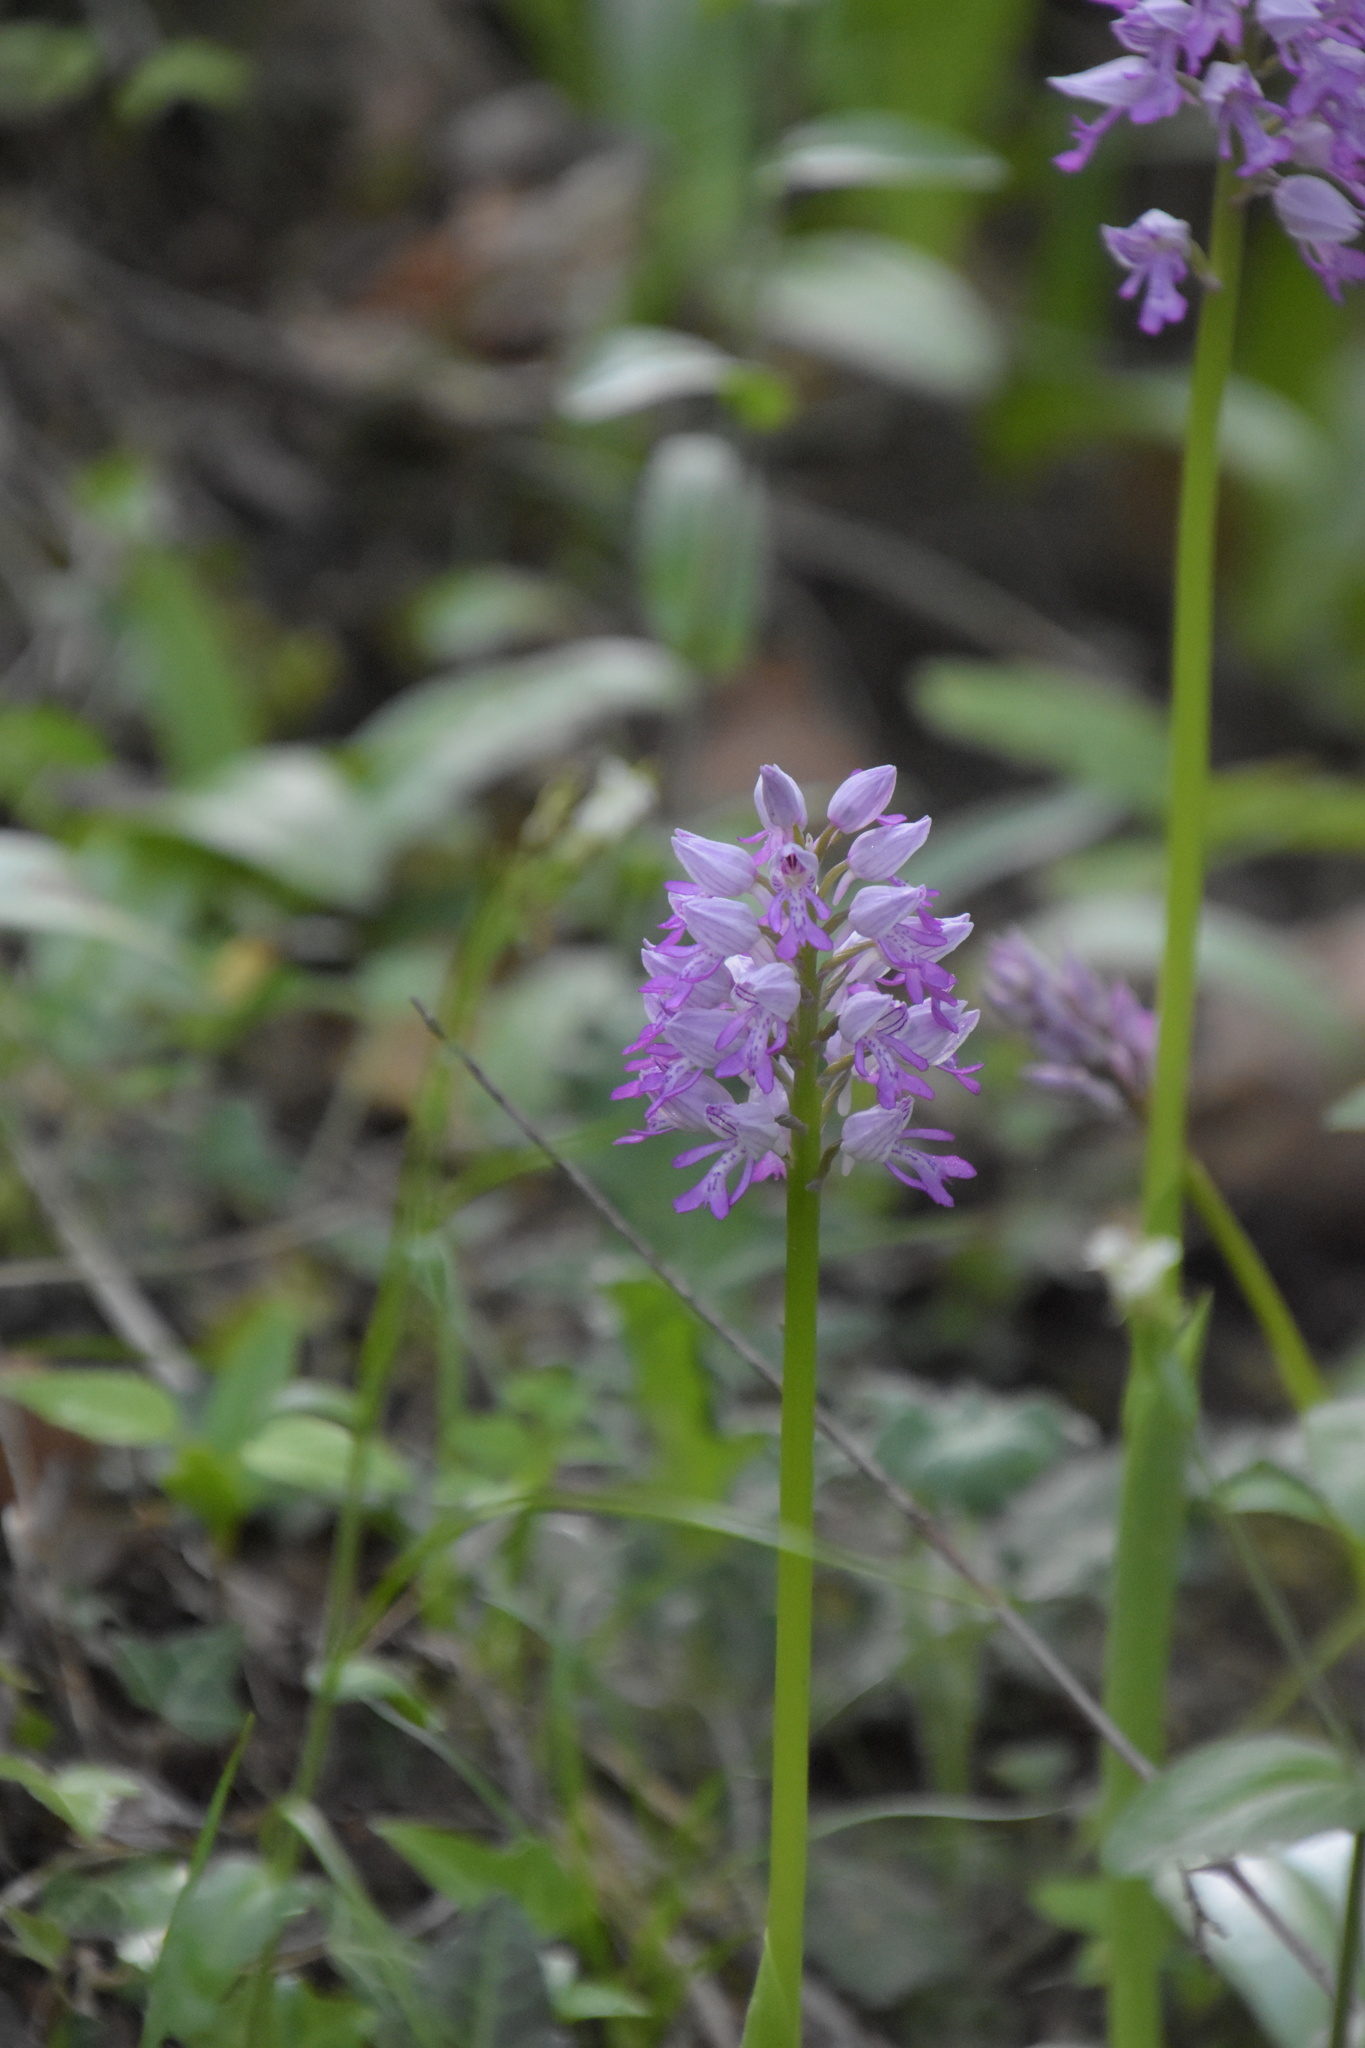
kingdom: Plantae
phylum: Tracheophyta
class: Liliopsida
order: Asparagales
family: Orchidaceae
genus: Orchis
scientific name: Orchis militaris
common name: Military orchid
